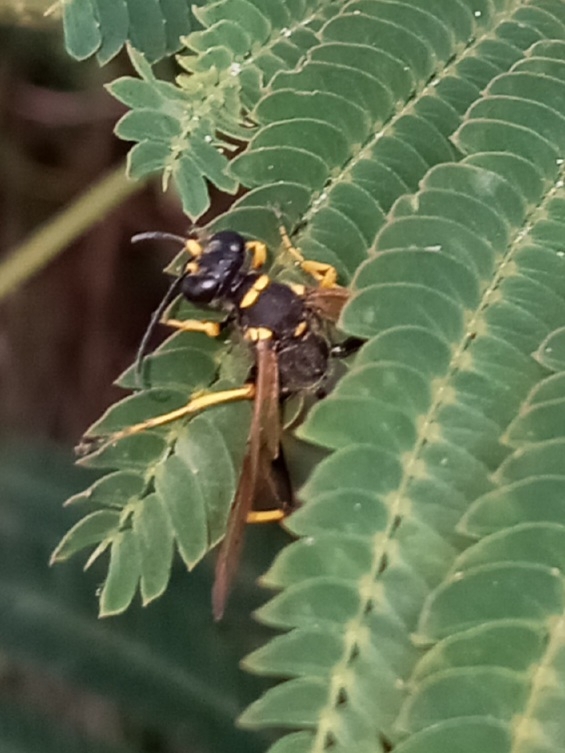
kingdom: Animalia
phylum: Arthropoda
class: Insecta
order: Hymenoptera
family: Sphecidae
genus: Sceliphron
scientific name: Sceliphron caementarium
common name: Mud dauber
